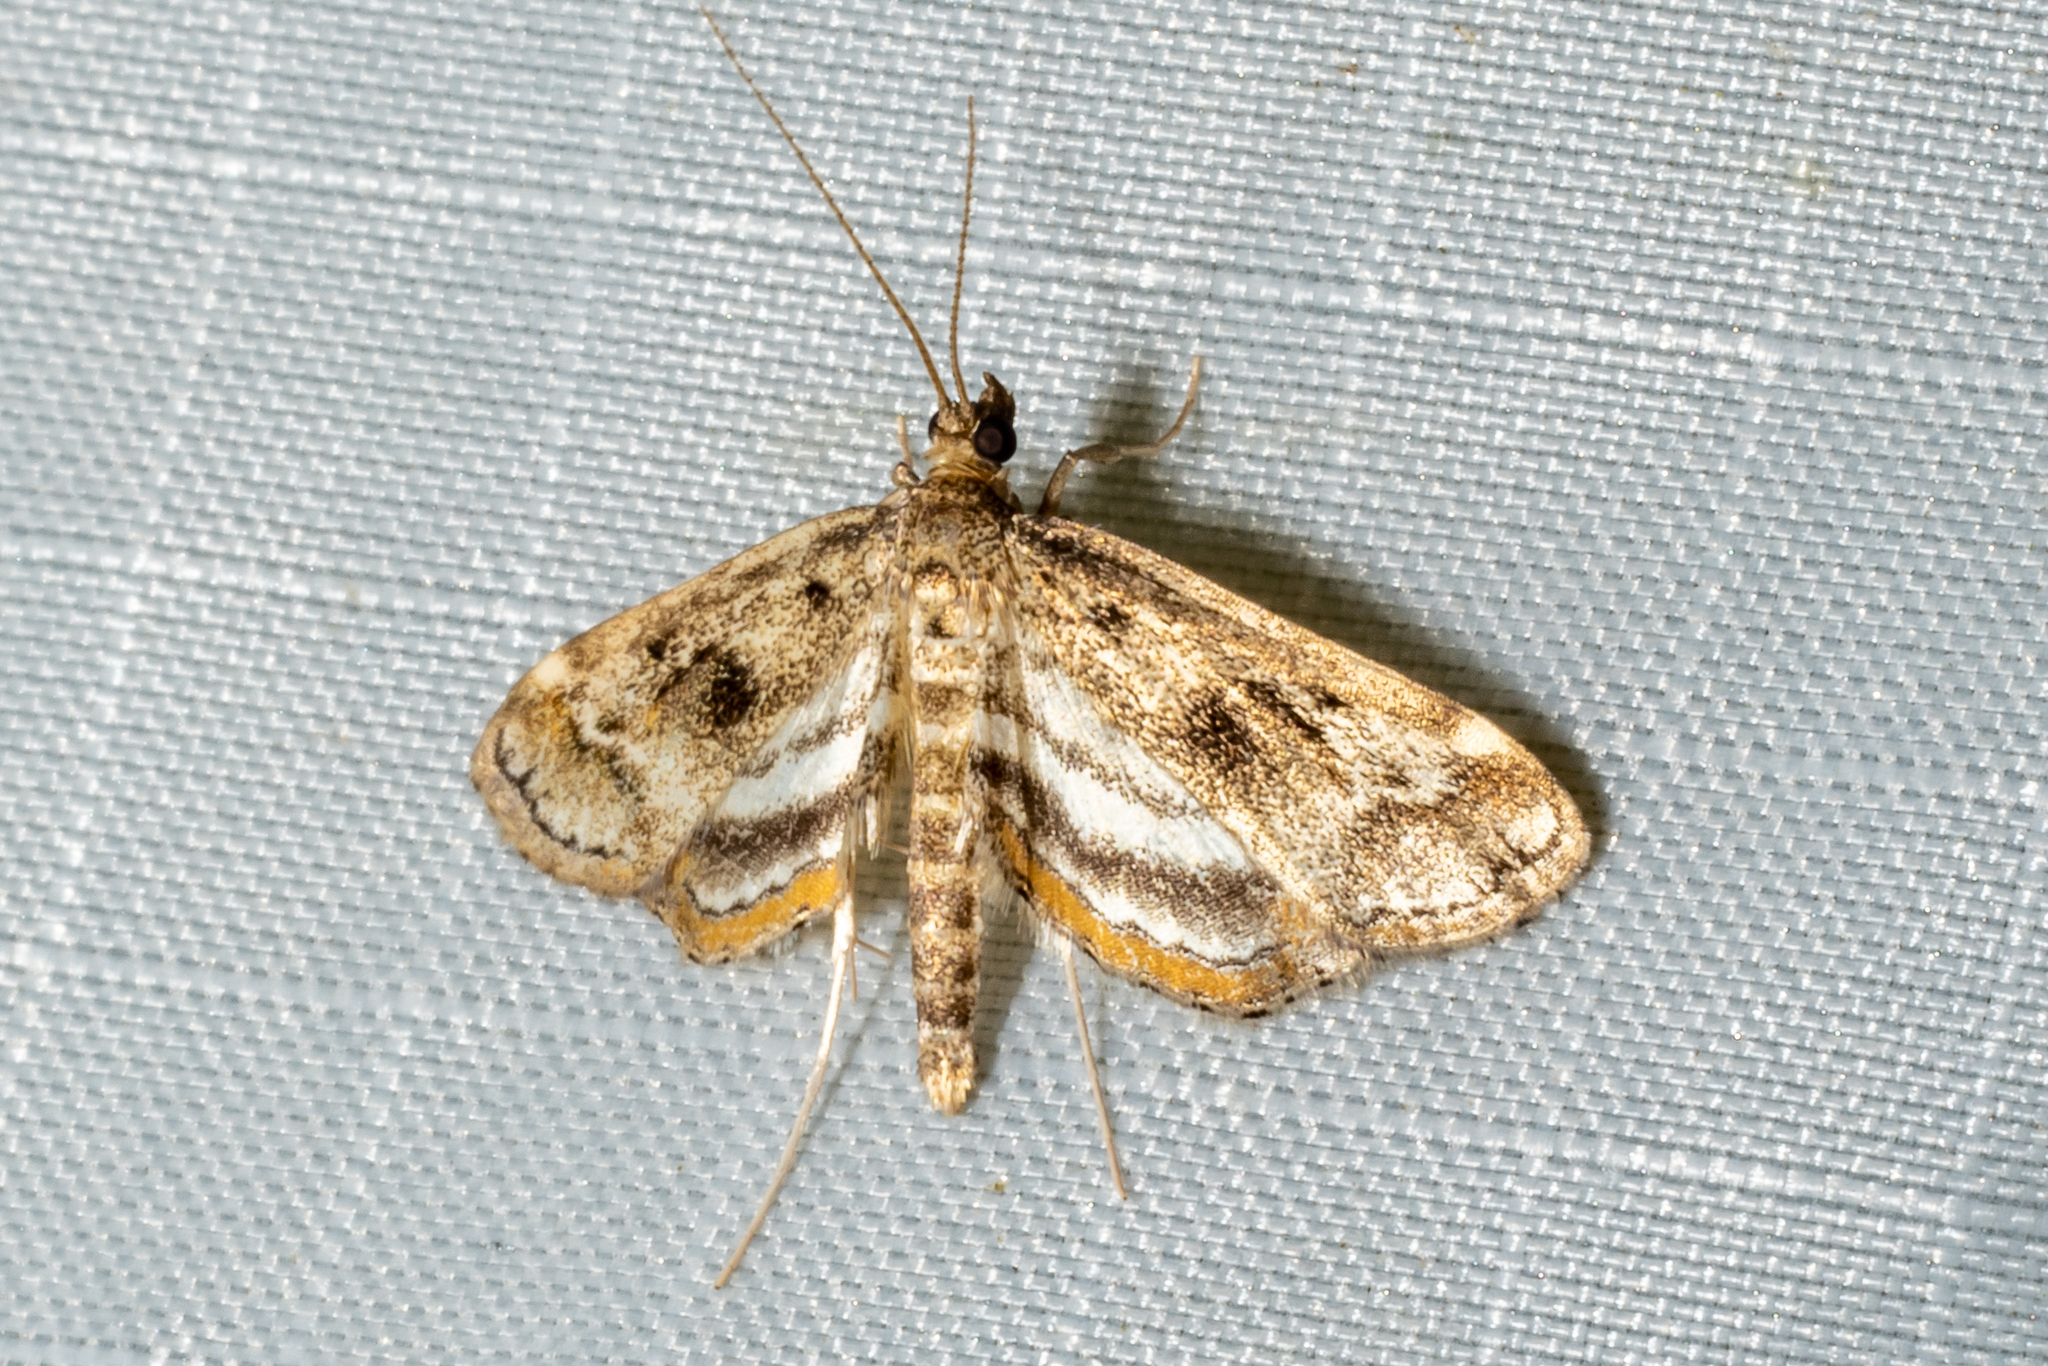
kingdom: Animalia
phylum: Arthropoda
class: Insecta
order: Lepidoptera
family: Crambidae
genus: Parapoynx
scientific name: Parapoynx obscuralis
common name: American china-mark
